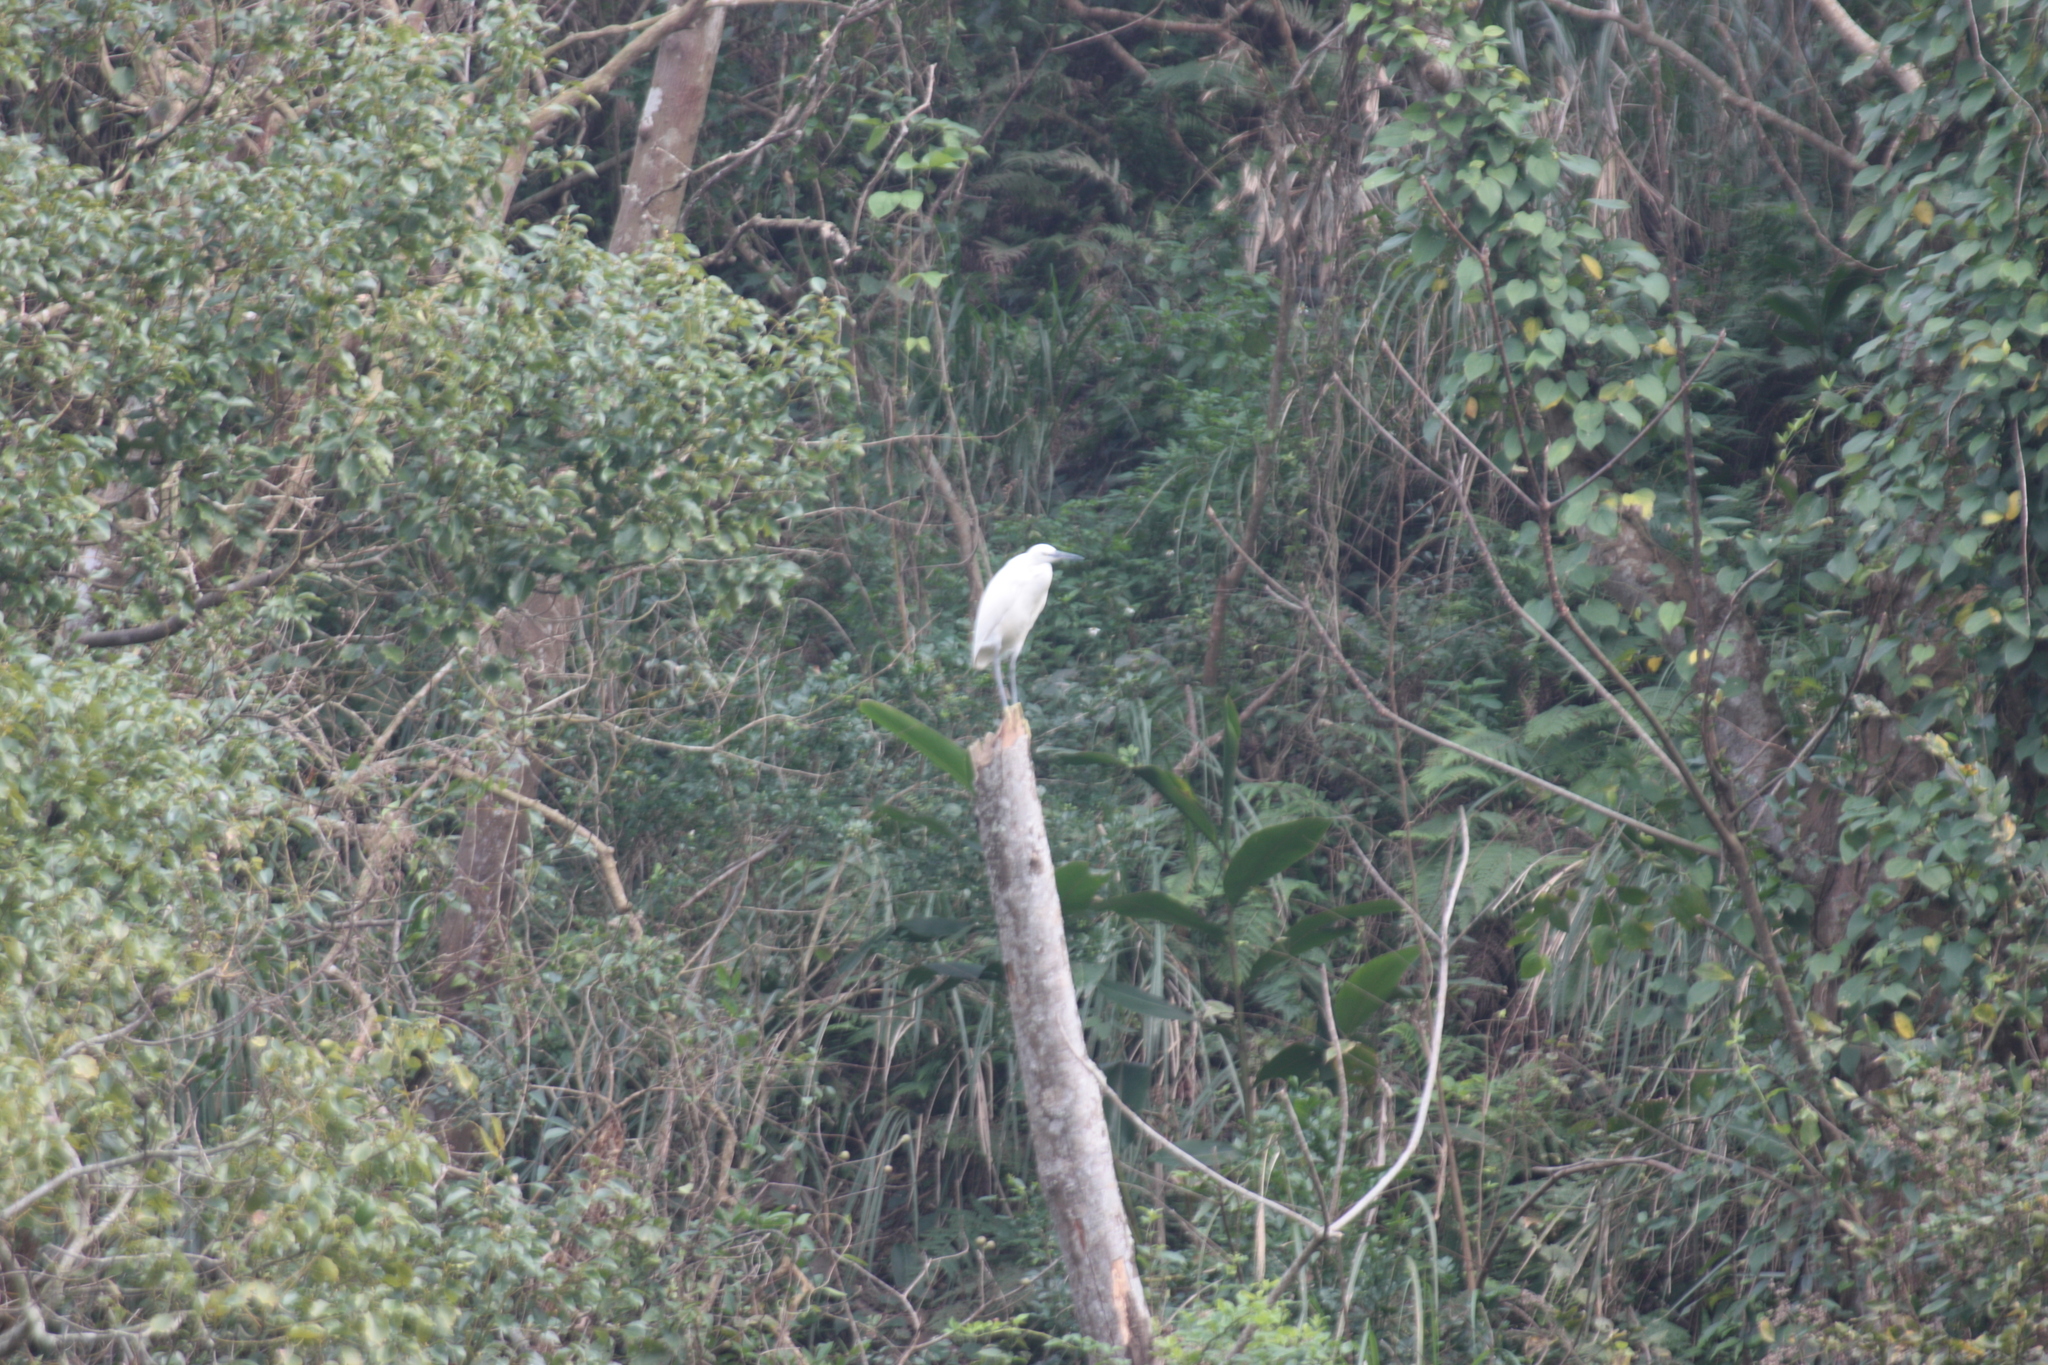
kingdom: Animalia
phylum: Chordata
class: Aves
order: Pelecaniformes
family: Ardeidae
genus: Egretta
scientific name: Egretta garzetta
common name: Little egret
